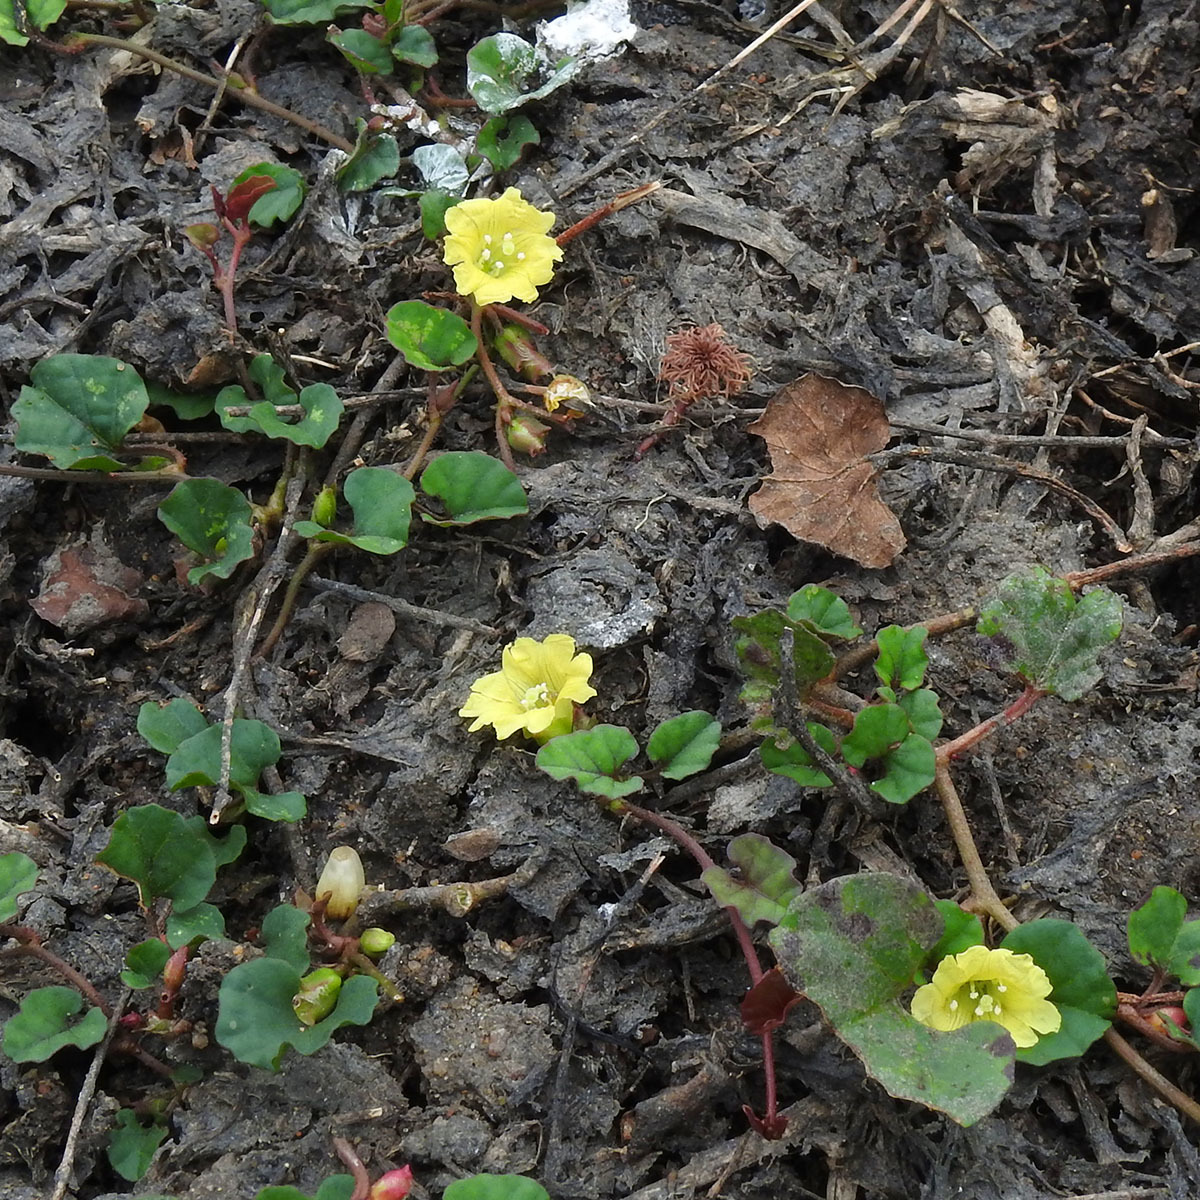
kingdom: Plantae
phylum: Tracheophyta
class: Magnoliopsida
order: Solanales
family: Convolvulaceae
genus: Merremia
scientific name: Merremia emarginata
